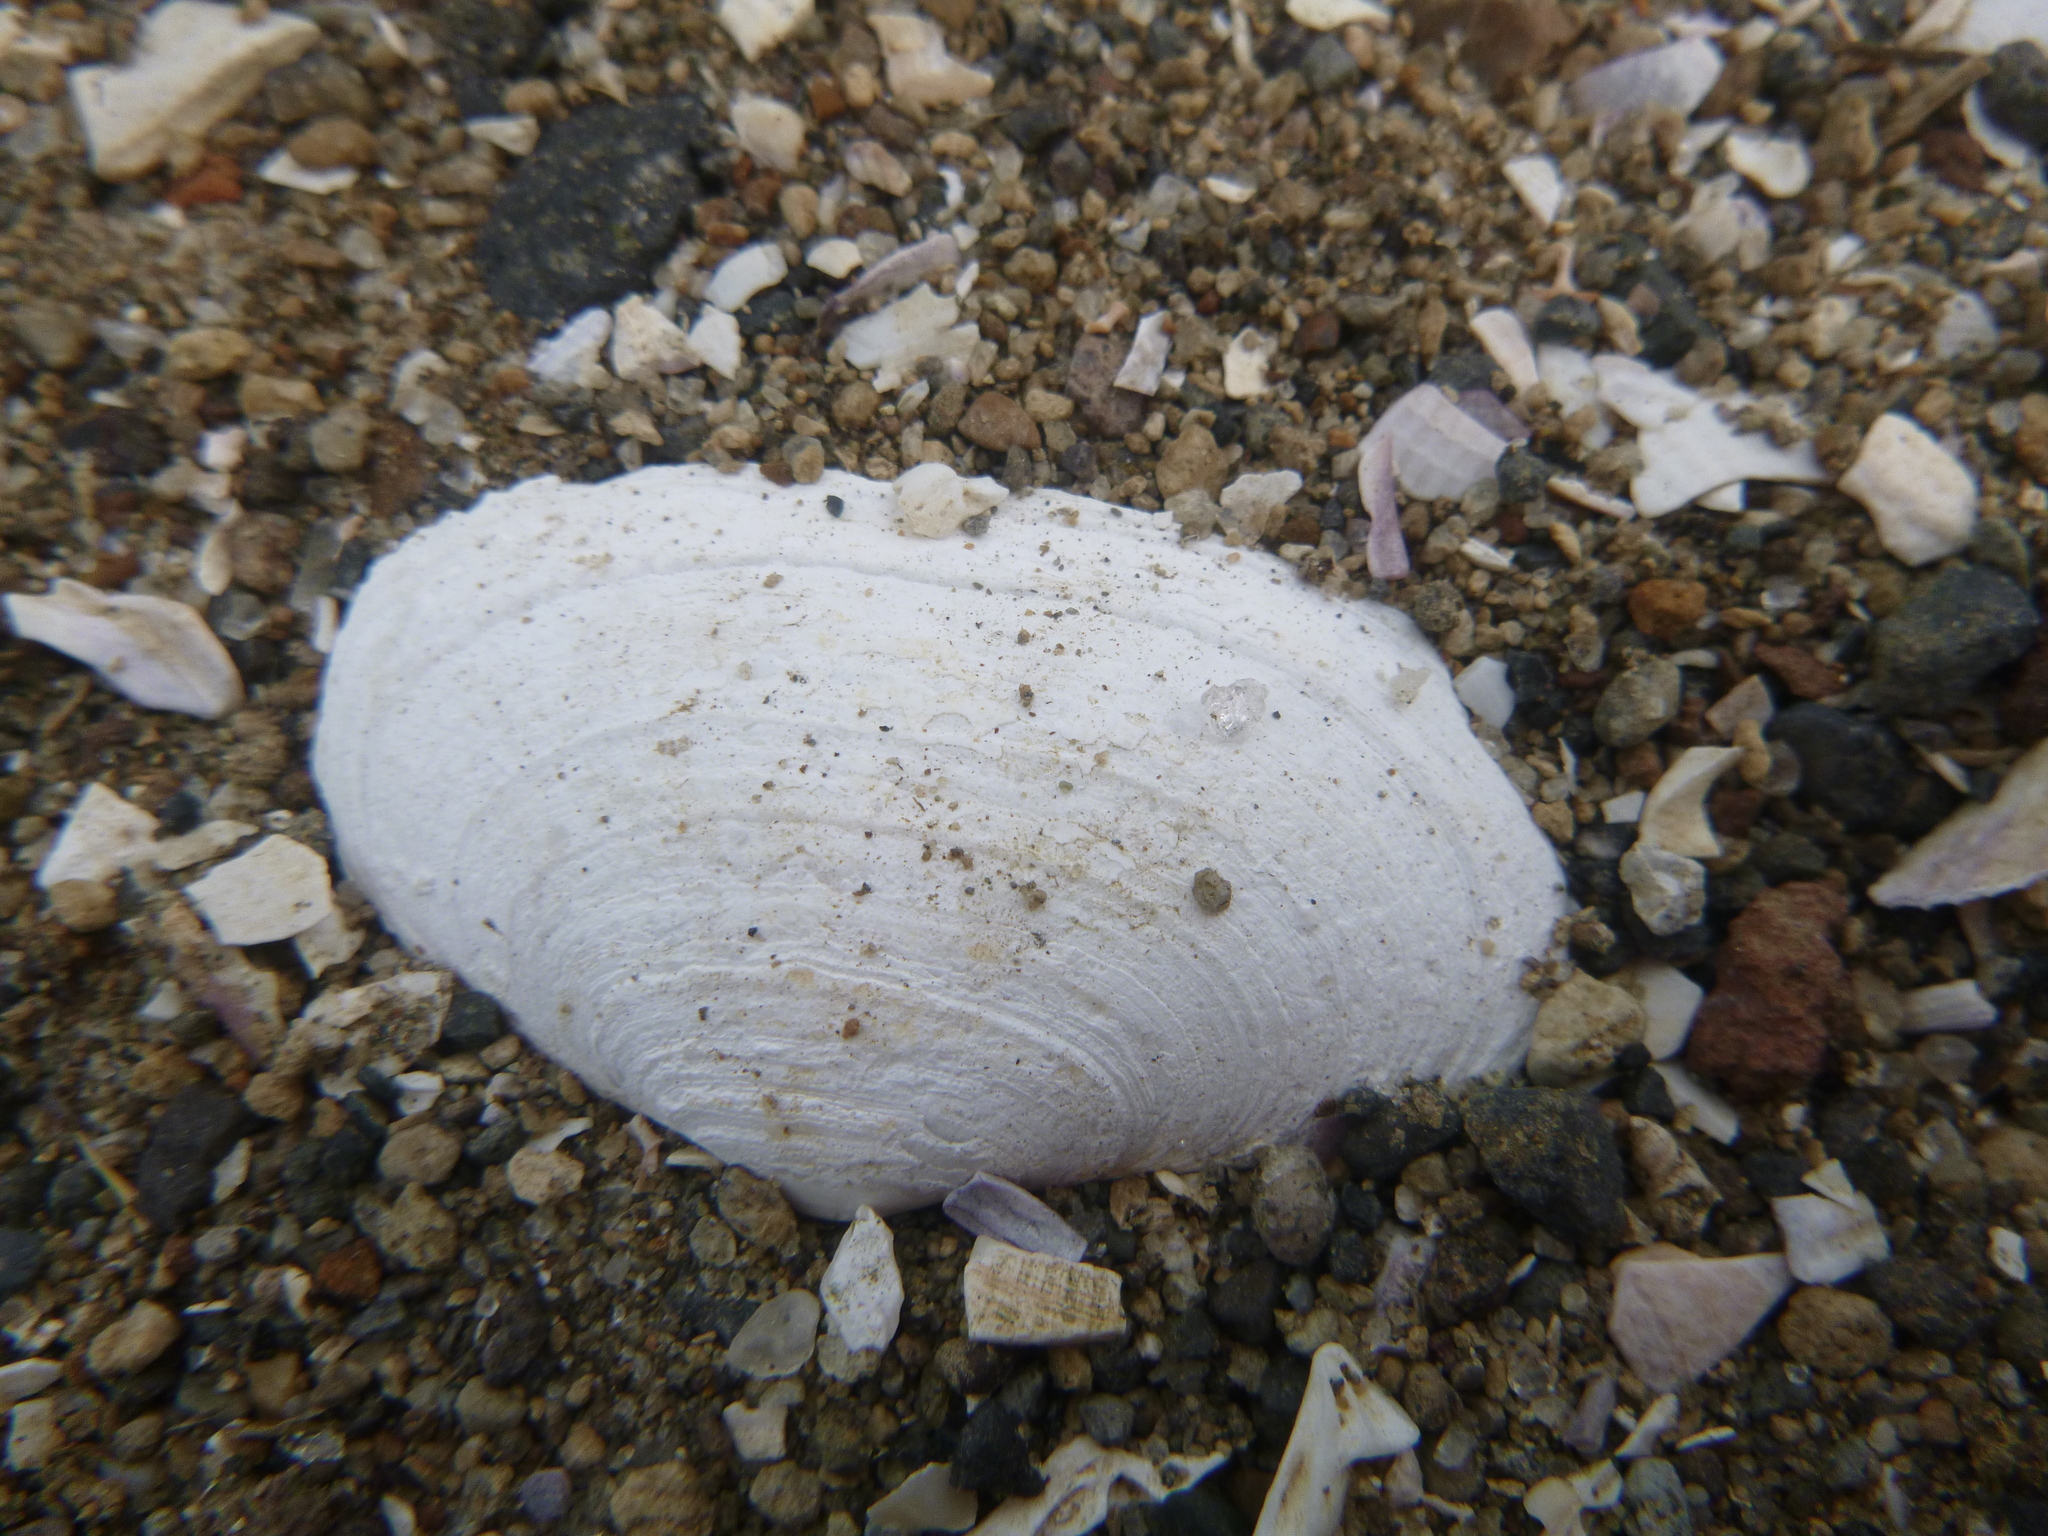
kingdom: Animalia
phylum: Mollusca
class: Bivalvia
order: Venerida
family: Mesodesmatidae
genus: Paphies
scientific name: Paphies australis
